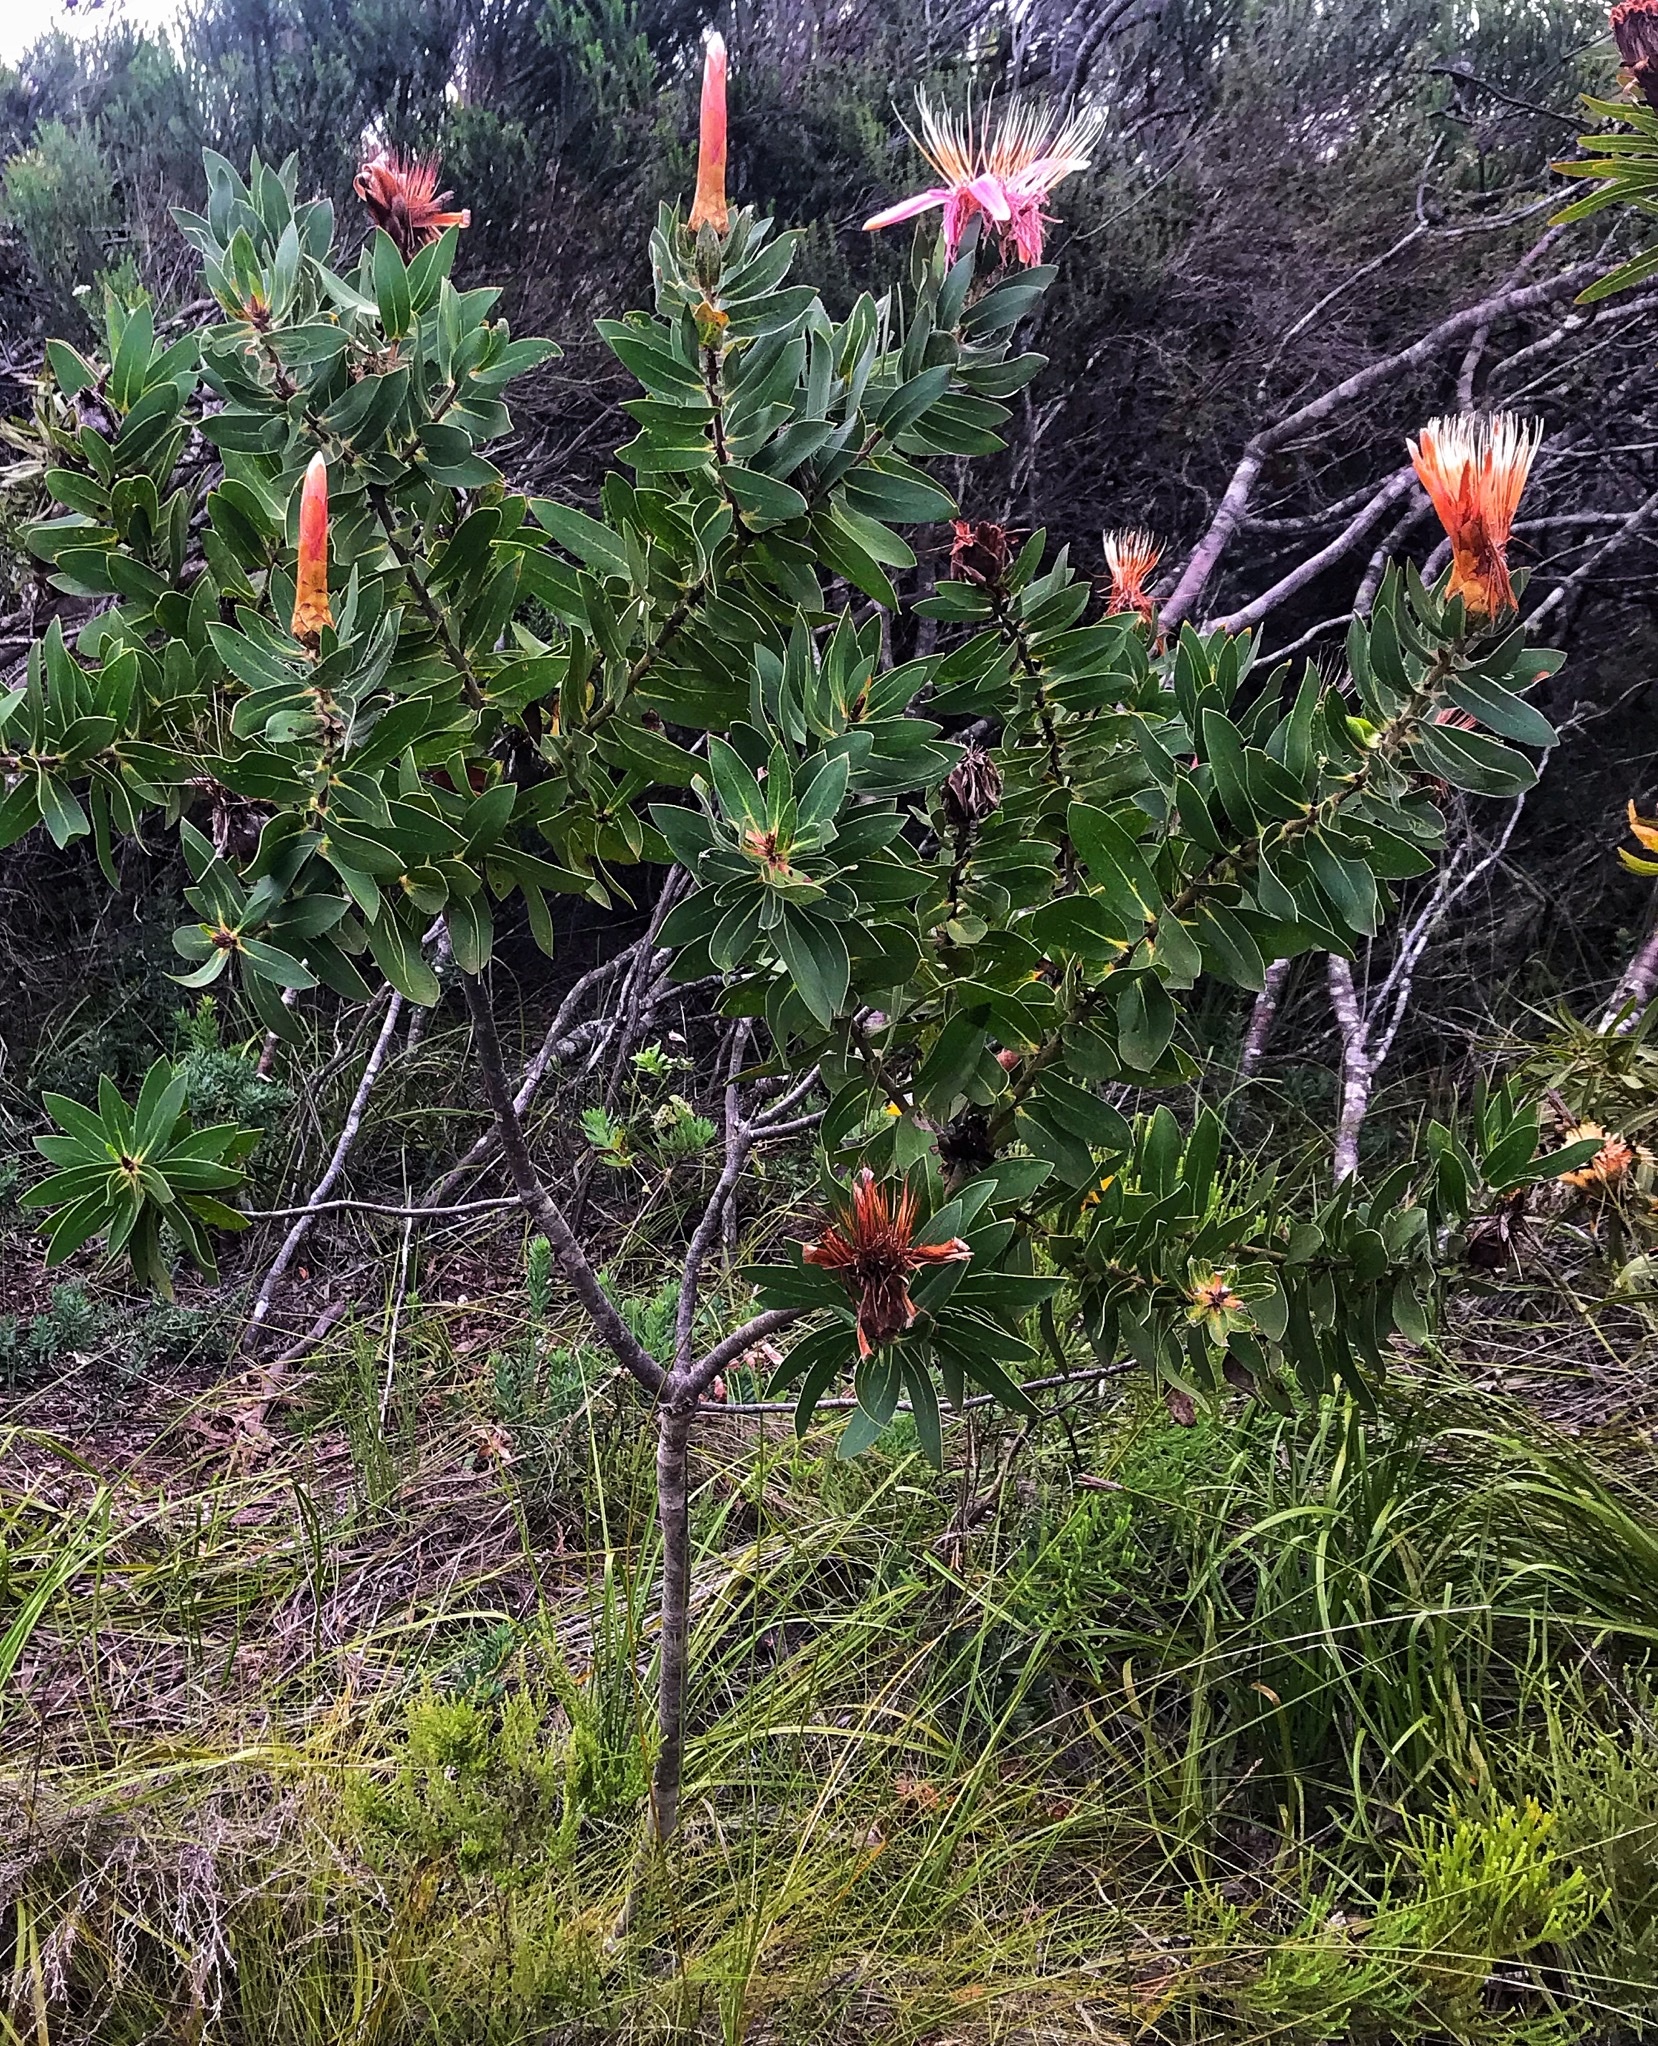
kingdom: Plantae
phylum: Tracheophyta
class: Magnoliopsida
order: Proteales
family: Proteaceae
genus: Protea
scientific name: Protea aurea
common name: Shuttlecock sugarbush
